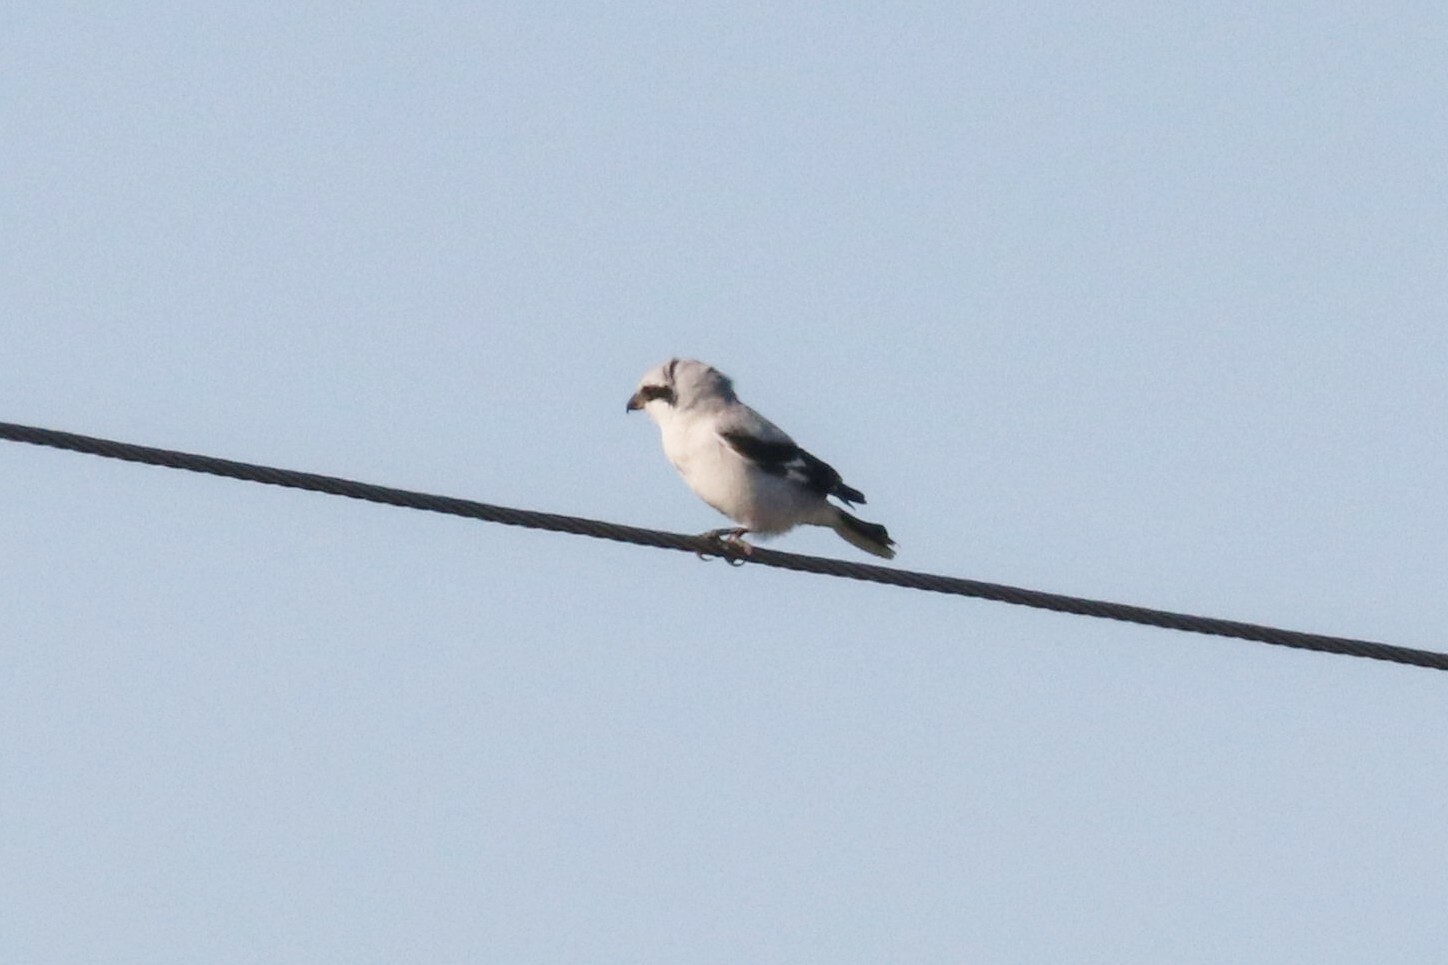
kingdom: Animalia
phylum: Chordata
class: Aves
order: Passeriformes
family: Laniidae
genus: Lanius
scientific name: Lanius excubitor
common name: Great grey shrike
